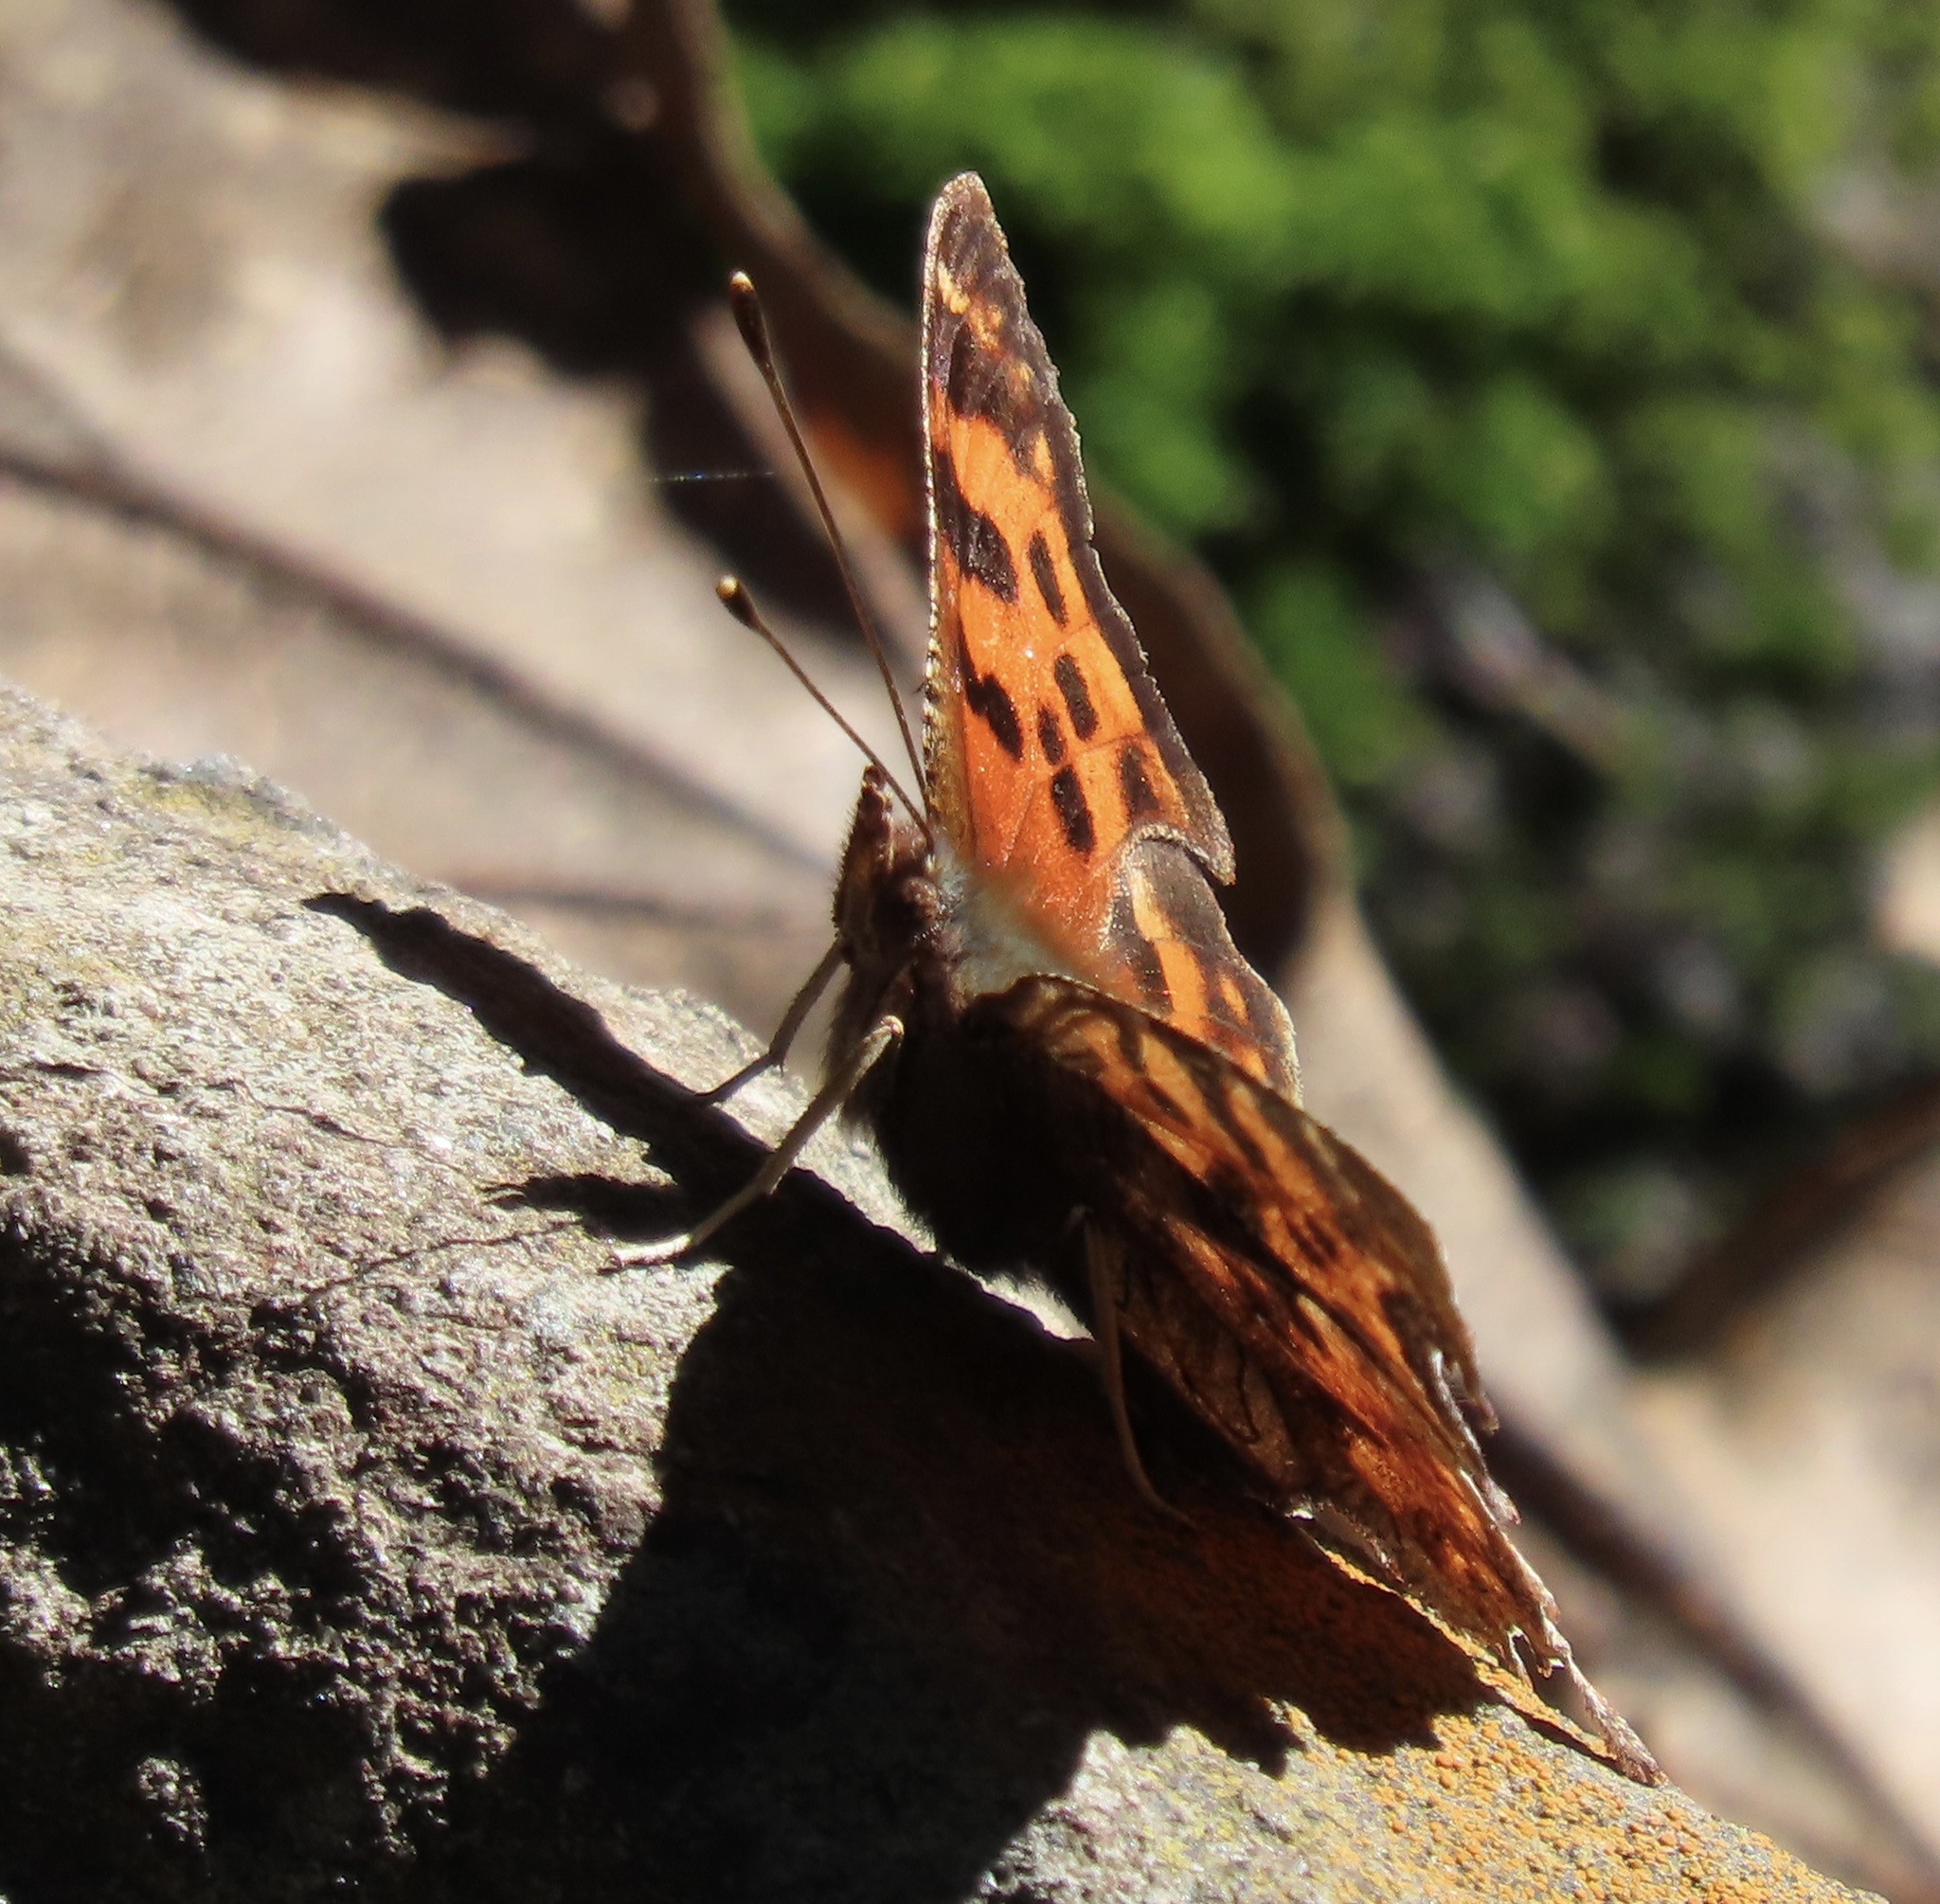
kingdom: Animalia
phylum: Arthropoda
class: Insecta
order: Lepidoptera
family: Nymphalidae
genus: Polygonia
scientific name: Polygonia satyrus
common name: Satyr angle wing
